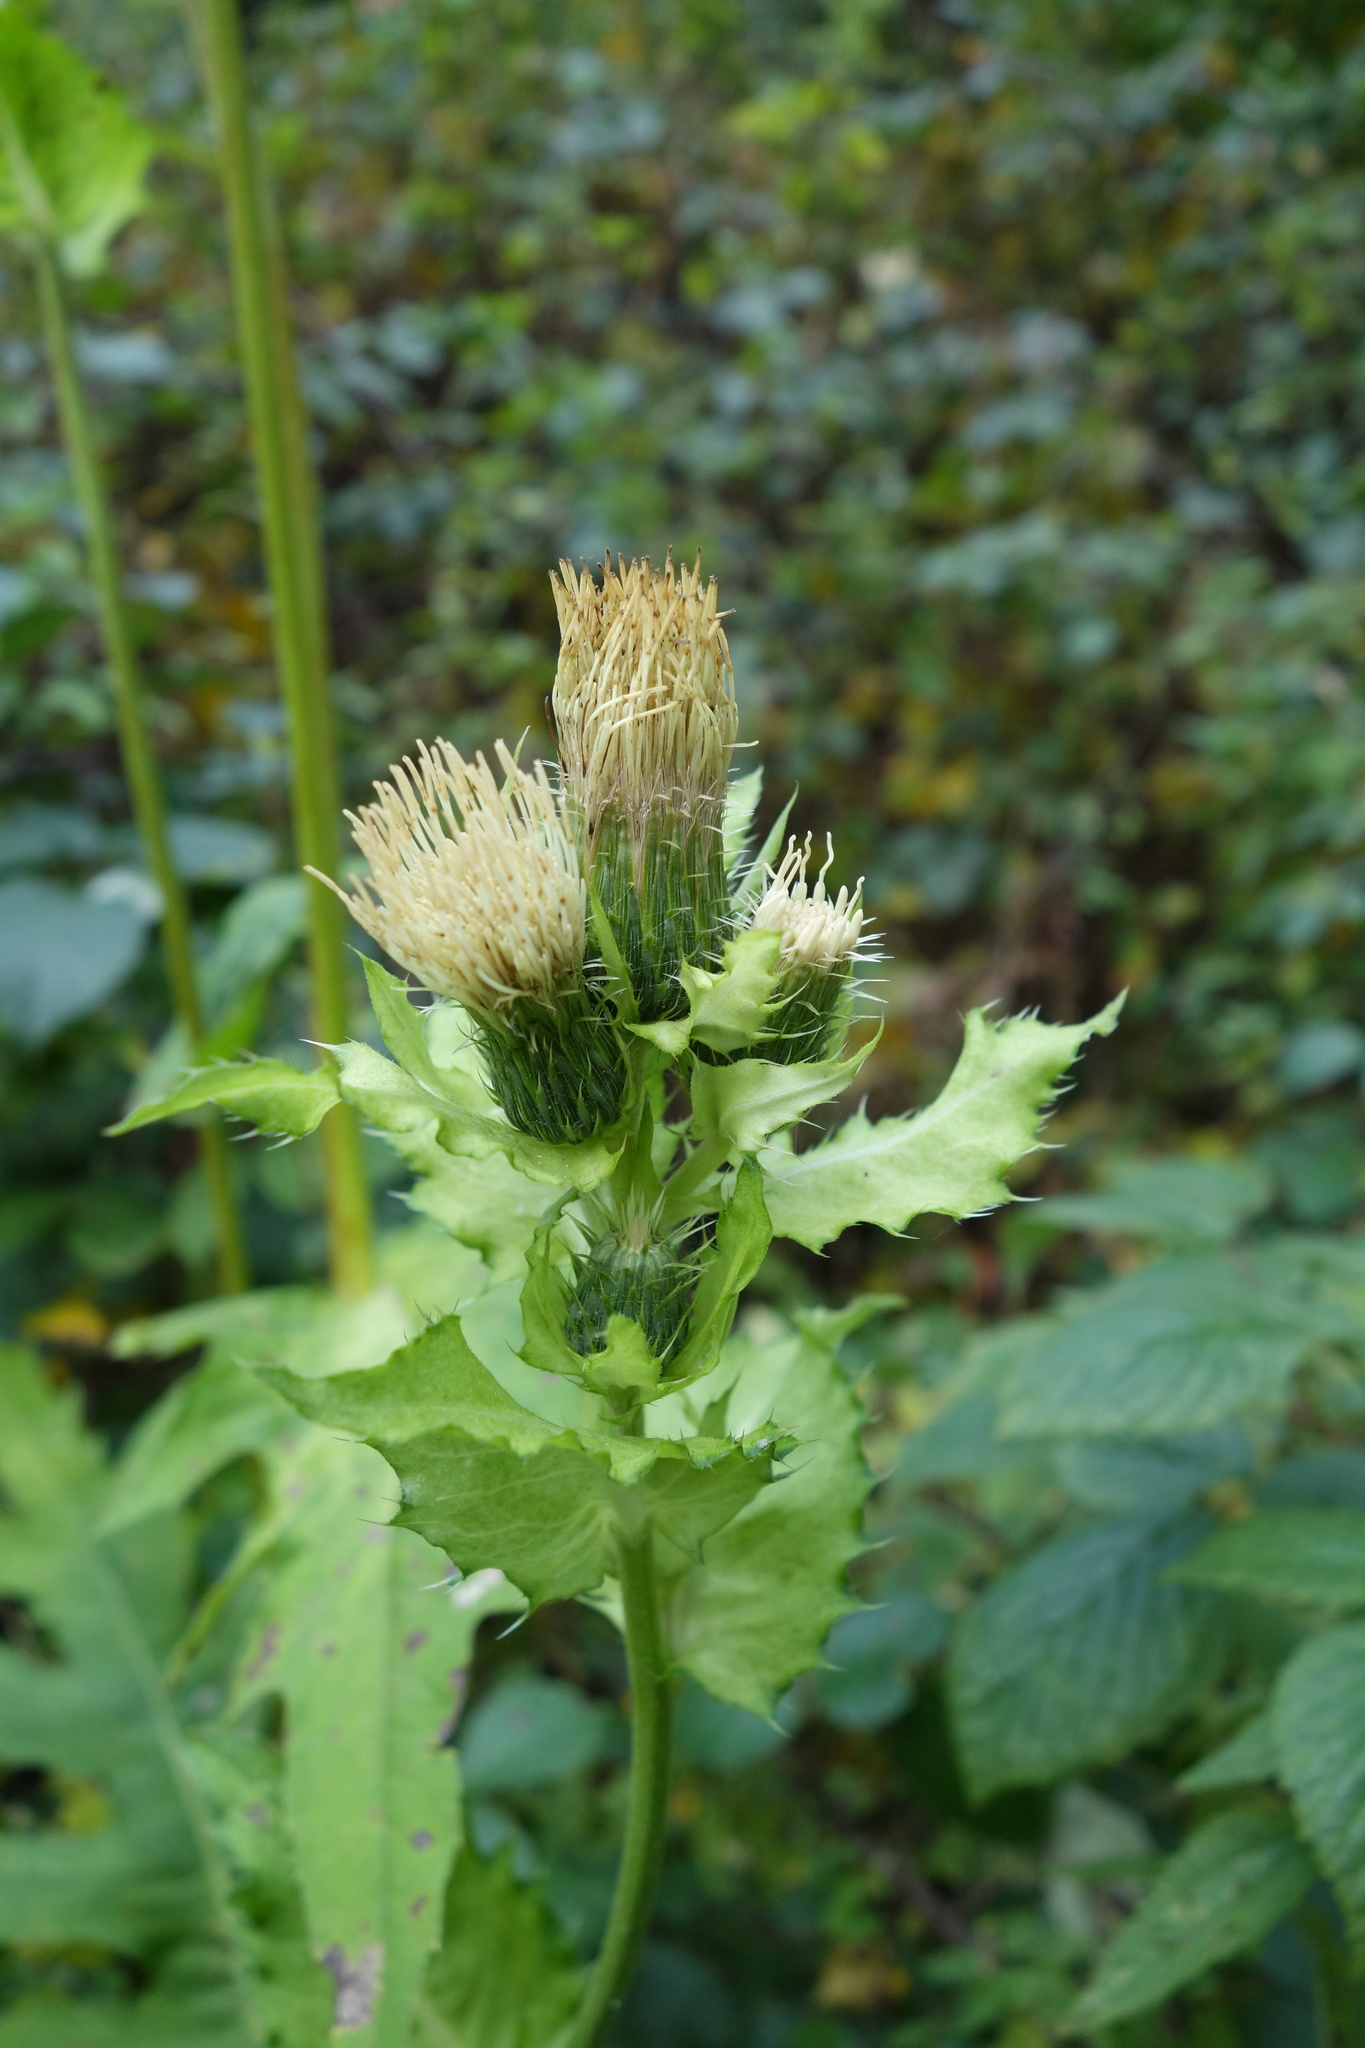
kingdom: Plantae
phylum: Tracheophyta
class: Magnoliopsida
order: Asterales
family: Asteraceae
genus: Cirsium
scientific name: Cirsium oleraceum
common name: Cabbage thistle
